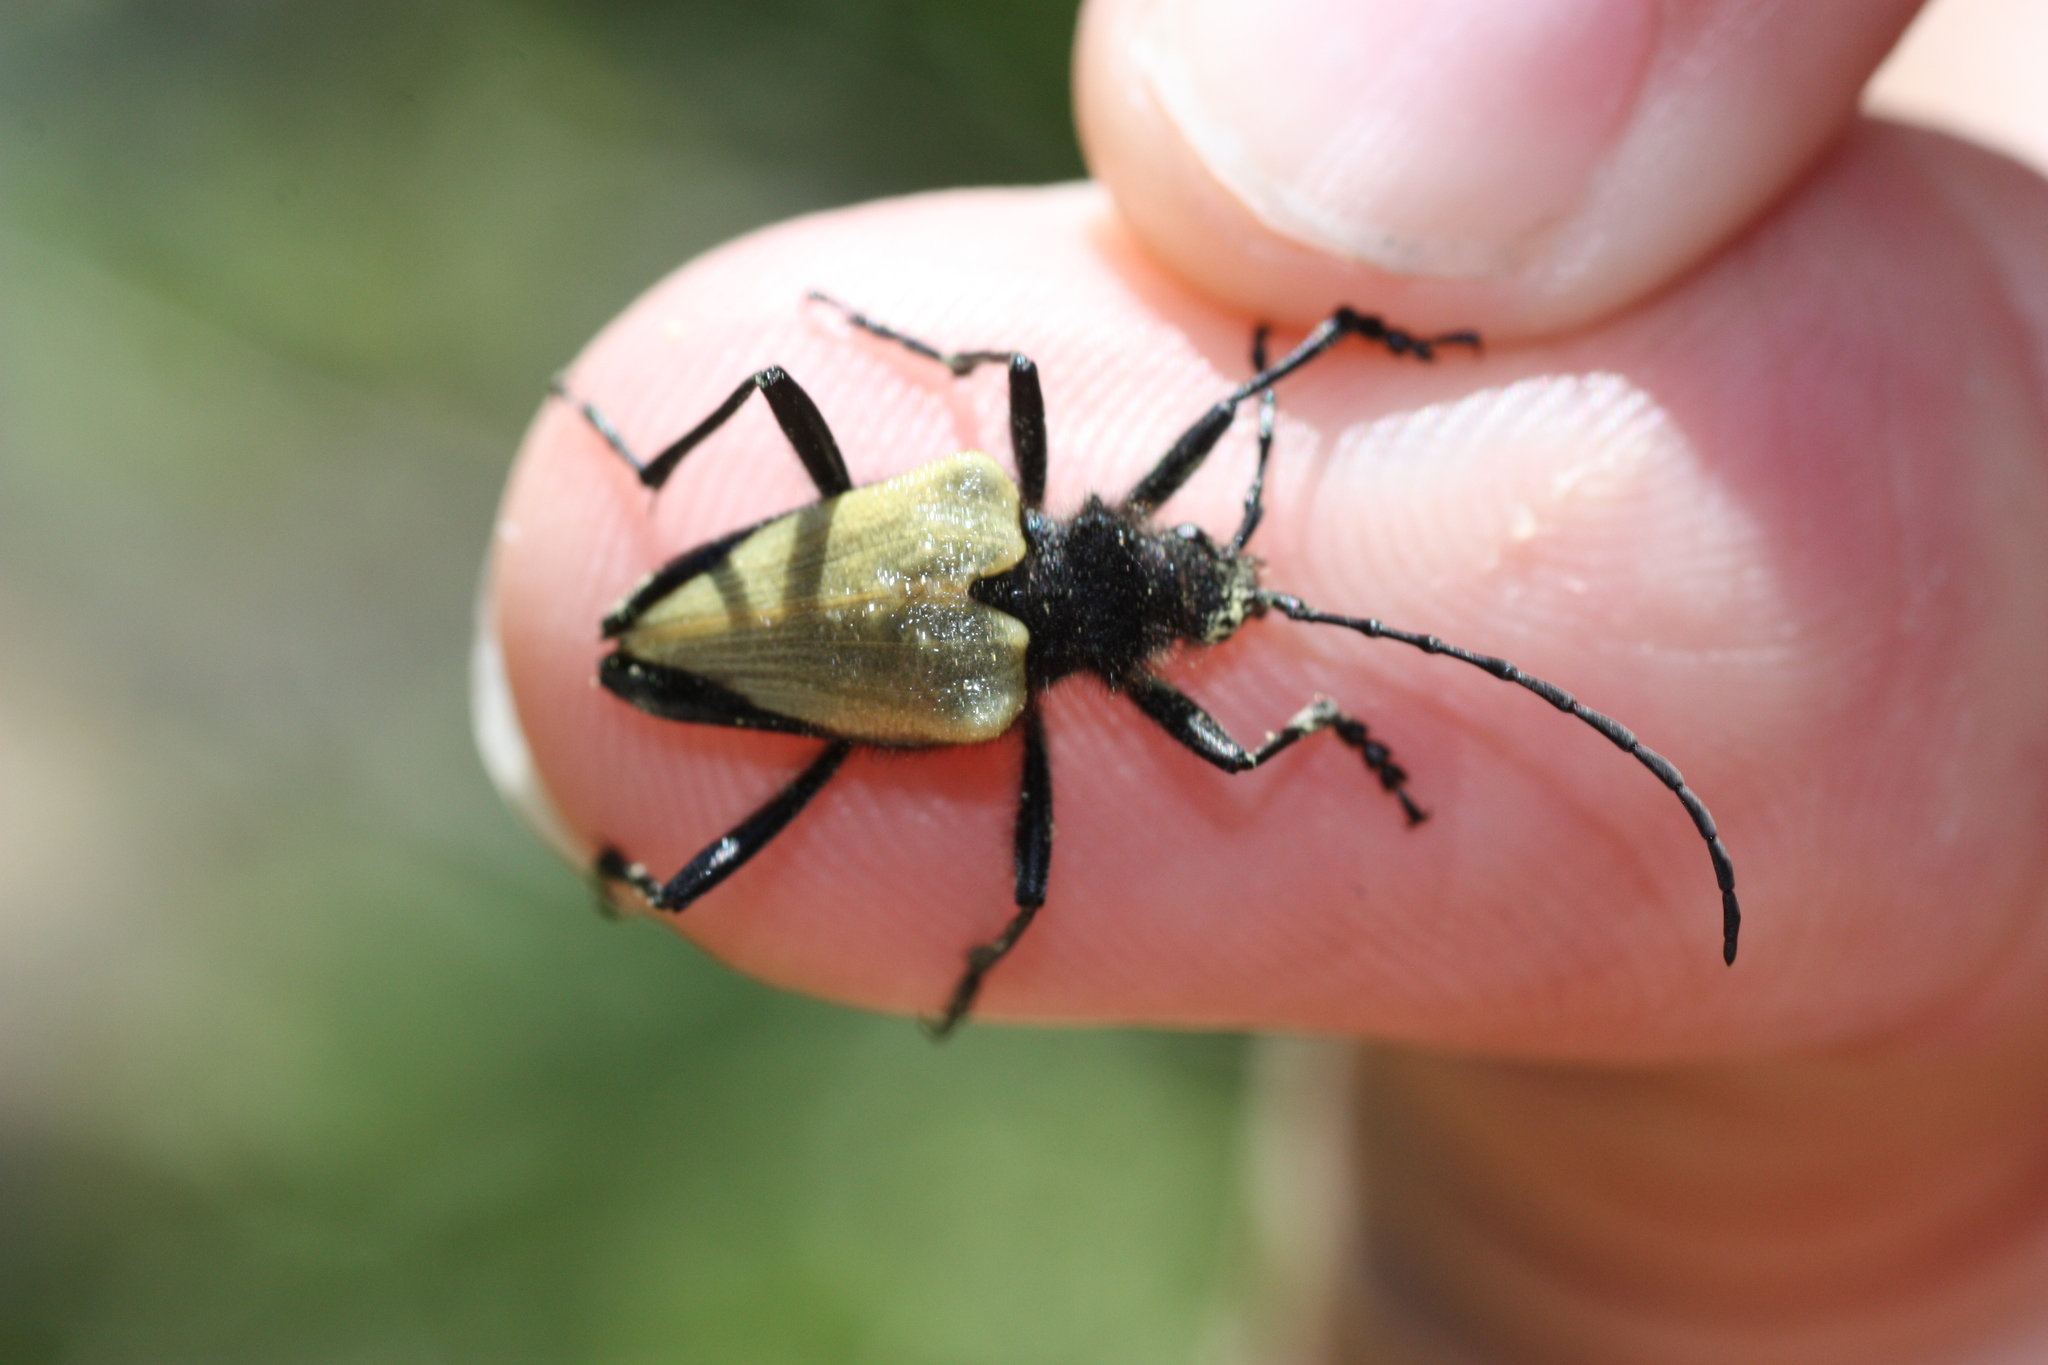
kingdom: Animalia
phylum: Arthropoda
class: Insecta
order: Coleoptera
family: Cerambycidae
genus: Pachyta
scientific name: Pachyta armata
